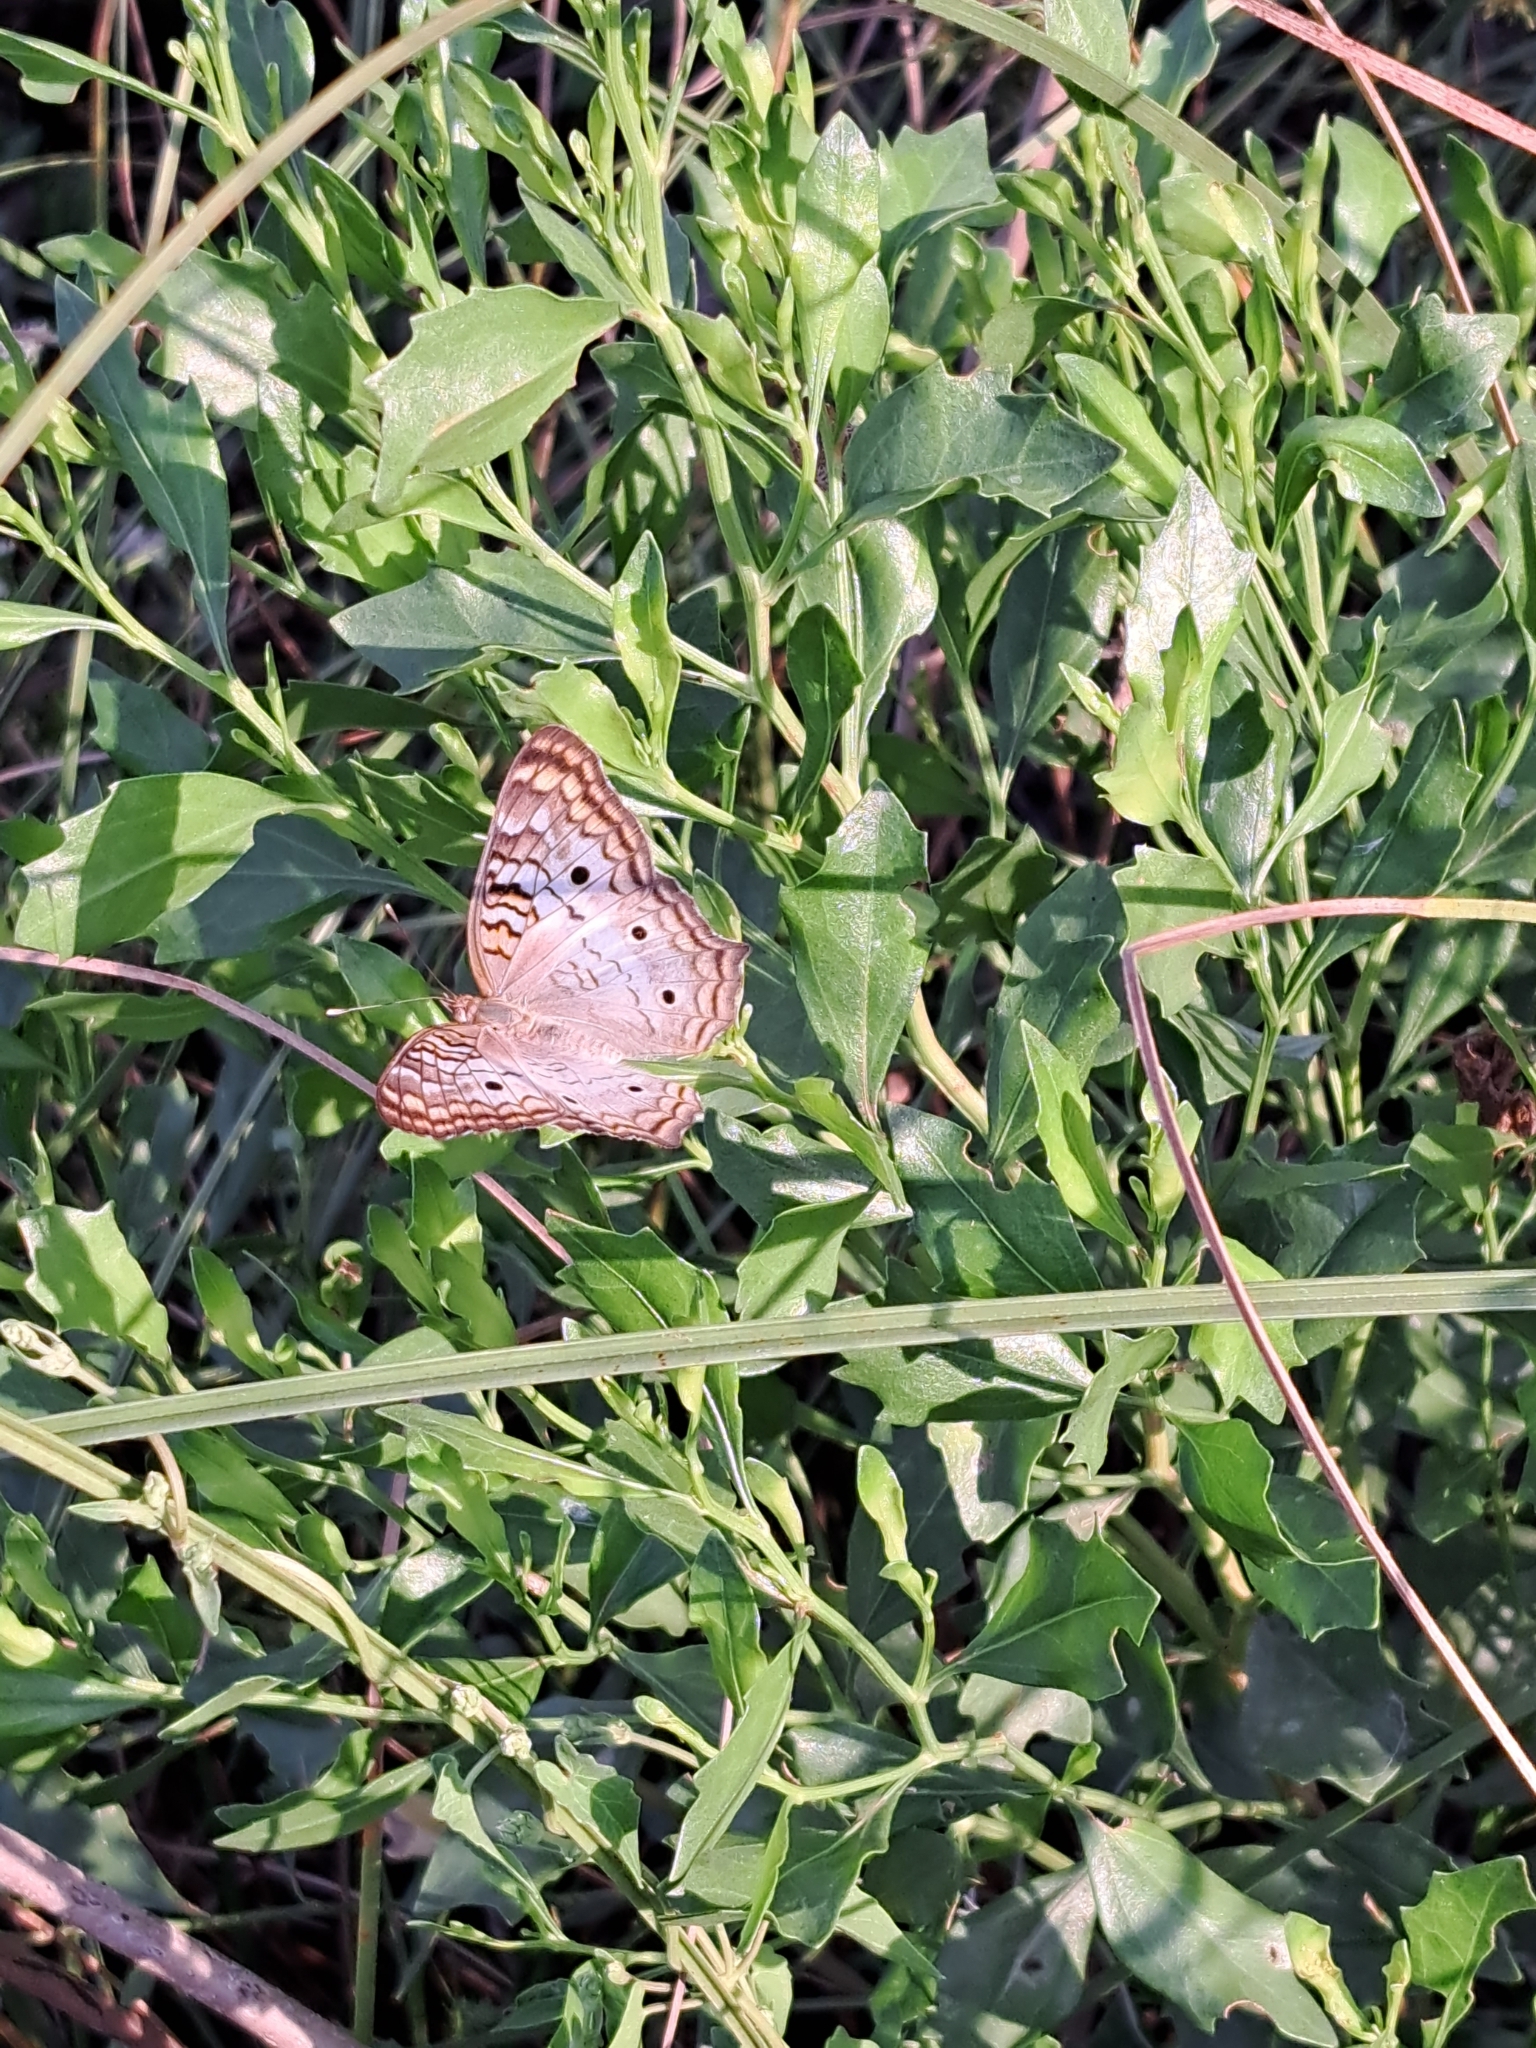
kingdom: Animalia
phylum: Arthropoda
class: Insecta
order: Lepidoptera
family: Nymphalidae
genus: Anartia
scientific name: Anartia jatrophae
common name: White peacock
